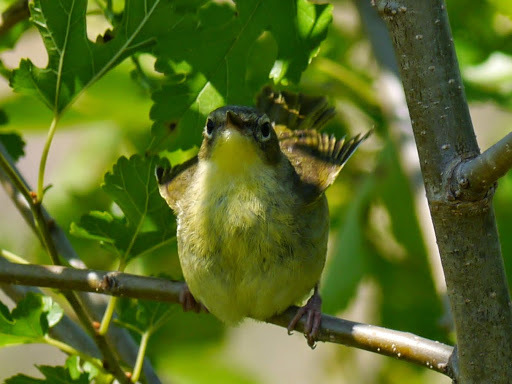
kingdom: Animalia
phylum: Chordata
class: Aves
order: Passeriformes
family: Parulidae
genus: Geothlypis
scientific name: Geothlypis trichas
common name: Common yellowthroat
